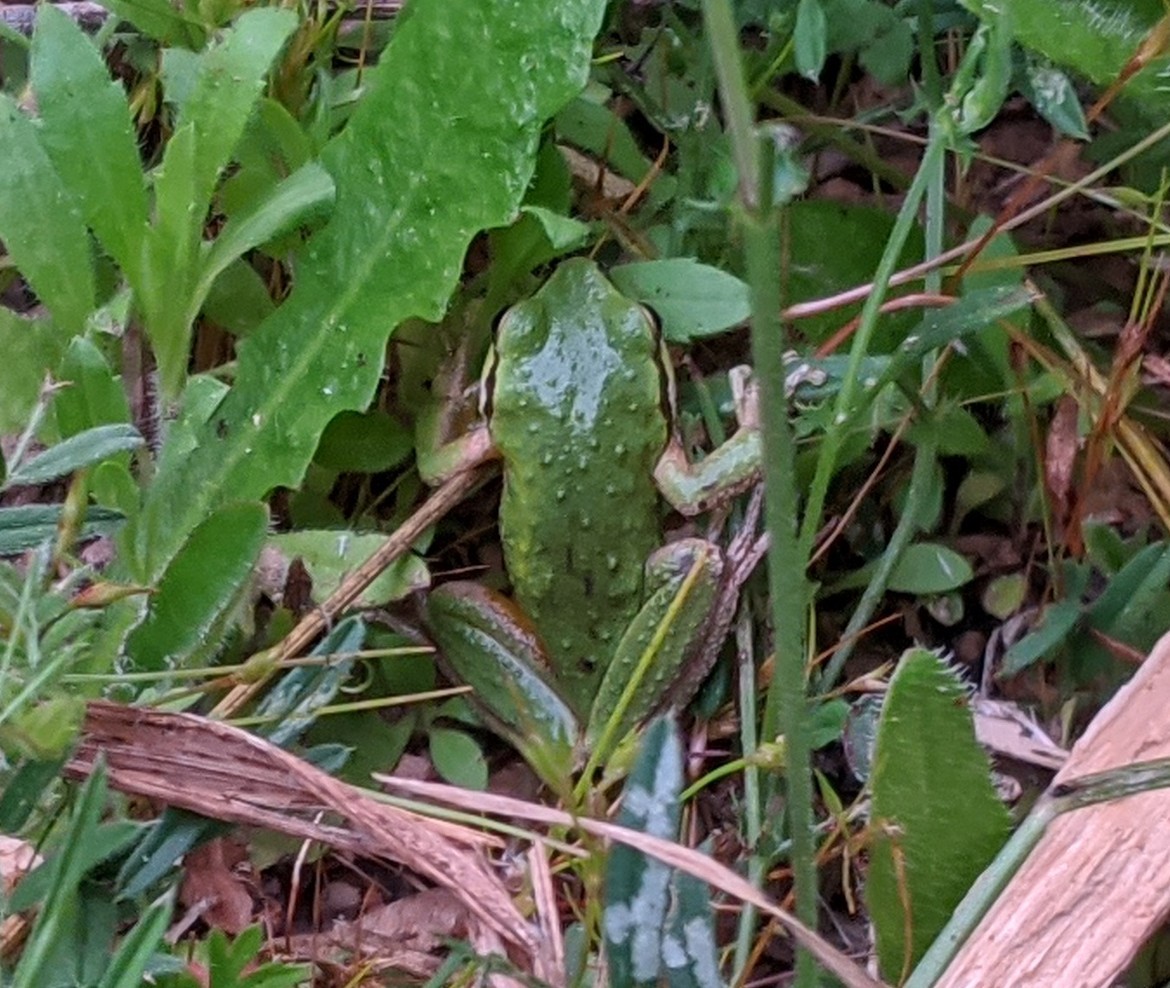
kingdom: Animalia
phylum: Chordata
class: Amphibia
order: Anura
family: Hylidae
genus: Pseudacris
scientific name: Pseudacris regilla
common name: Pacific chorus frog
